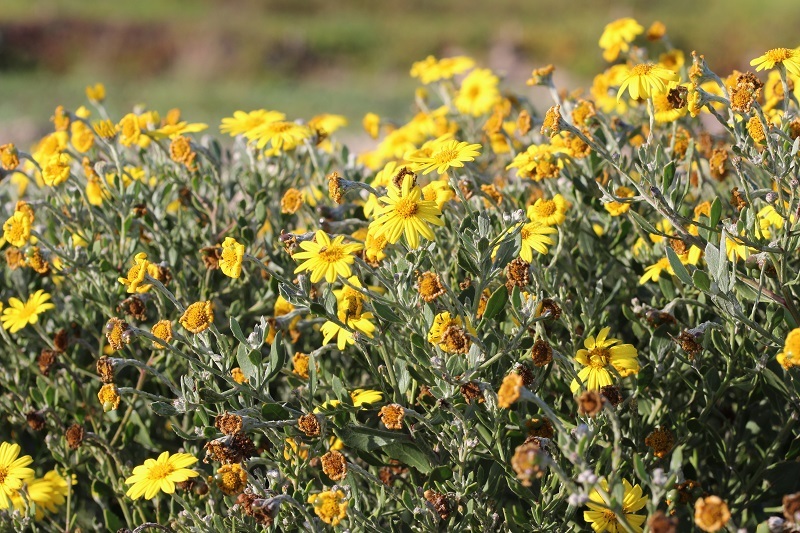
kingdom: Plantae
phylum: Tracheophyta
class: Magnoliopsida
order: Asterales
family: Asteraceae
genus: Osteospermum
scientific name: Osteospermum moniliferum
